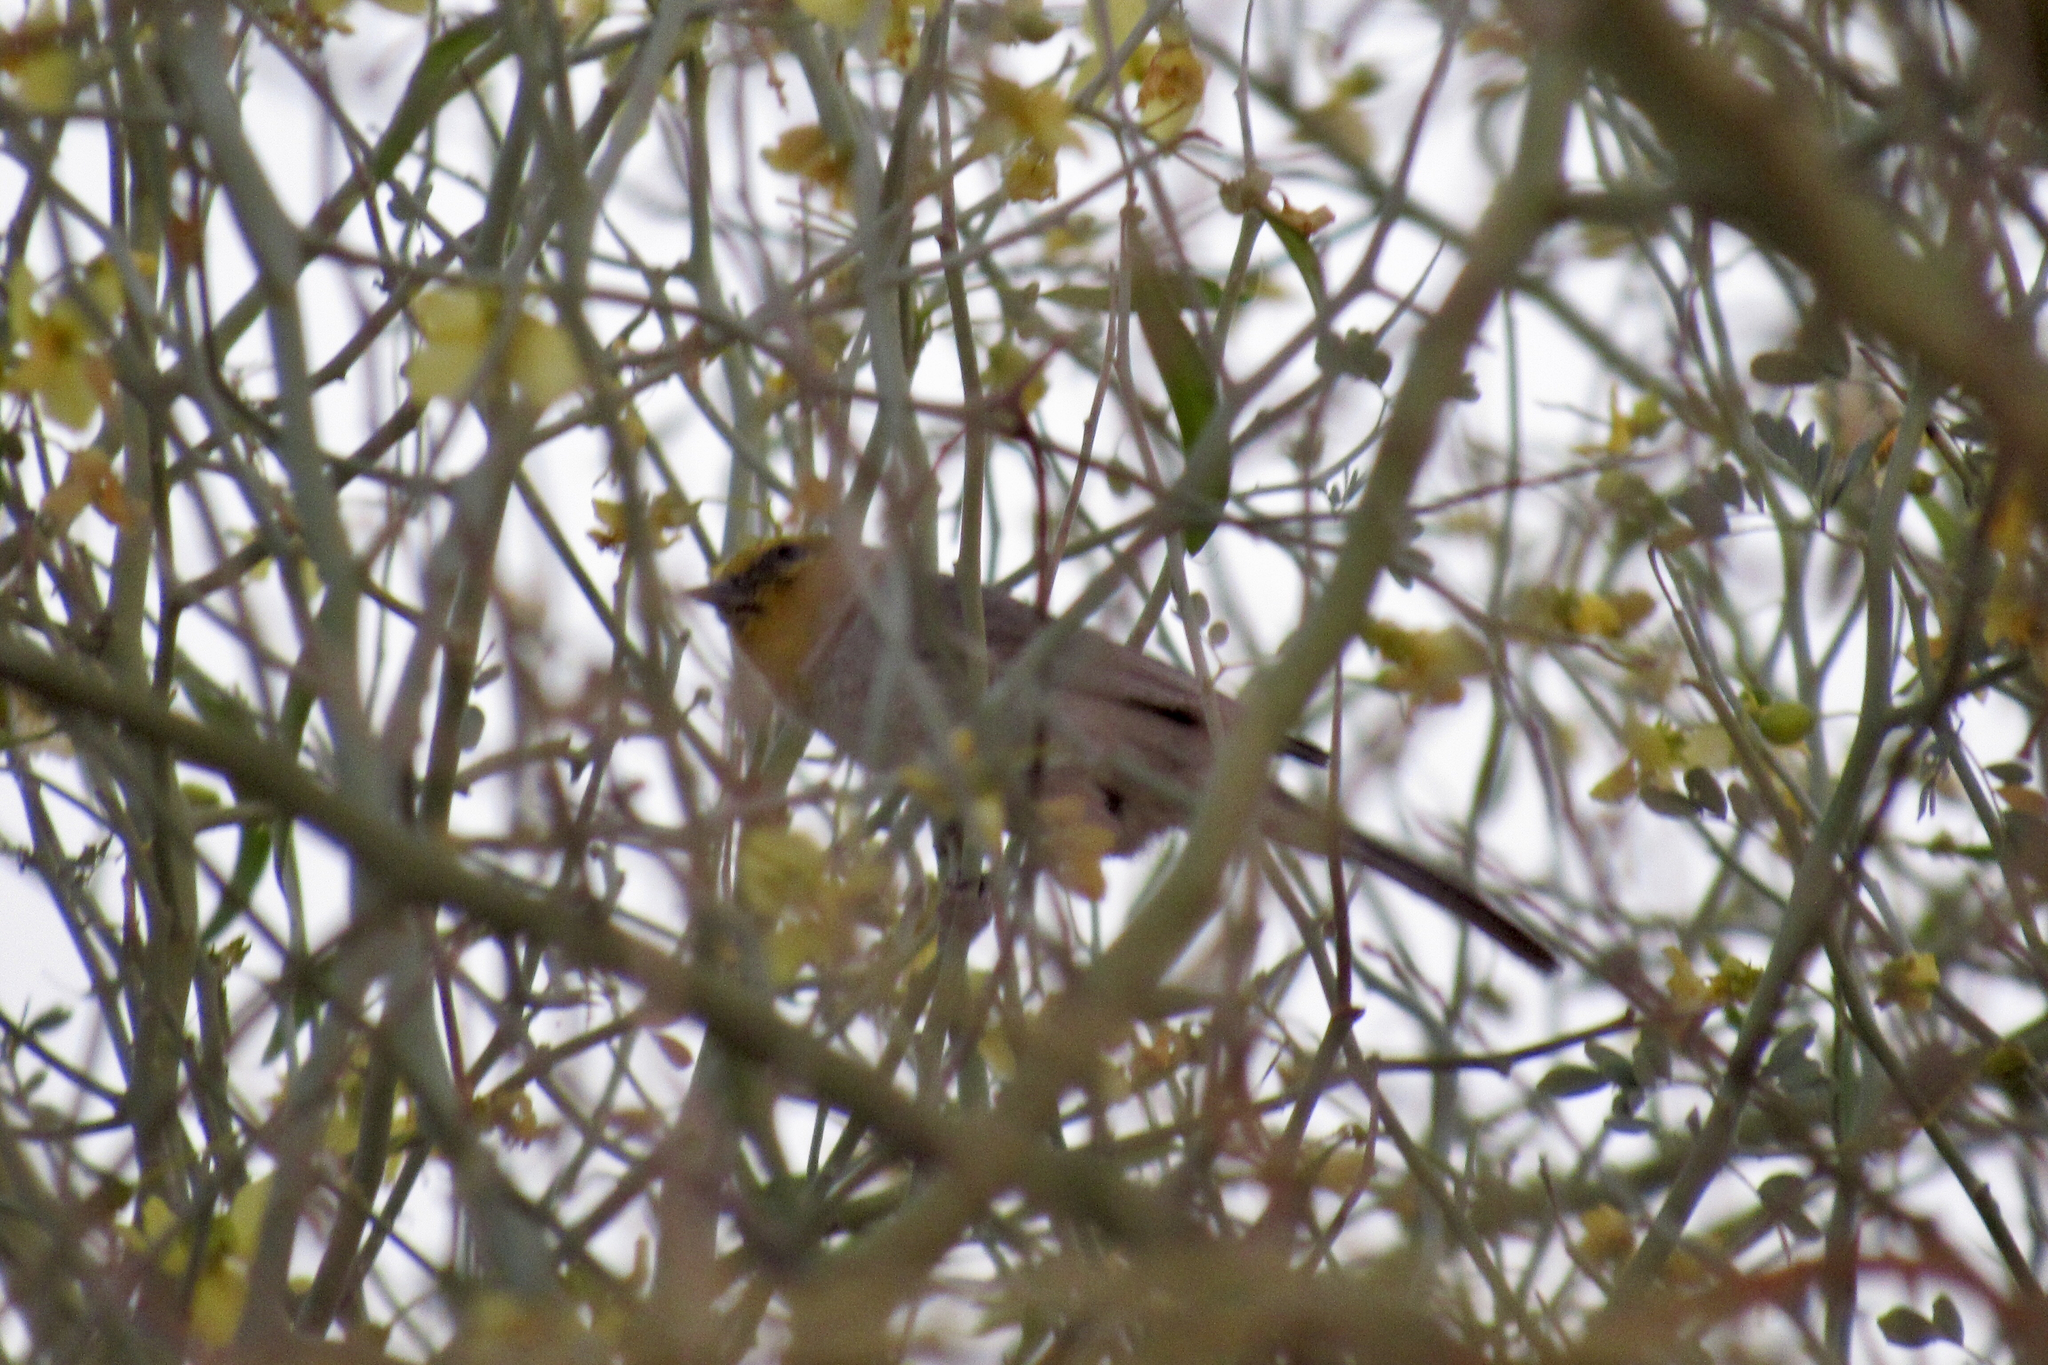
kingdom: Animalia
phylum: Chordata
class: Aves
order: Passeriformes
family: Remizidae
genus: Auriparus
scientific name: Auriparus flaviceps
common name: Verdin
